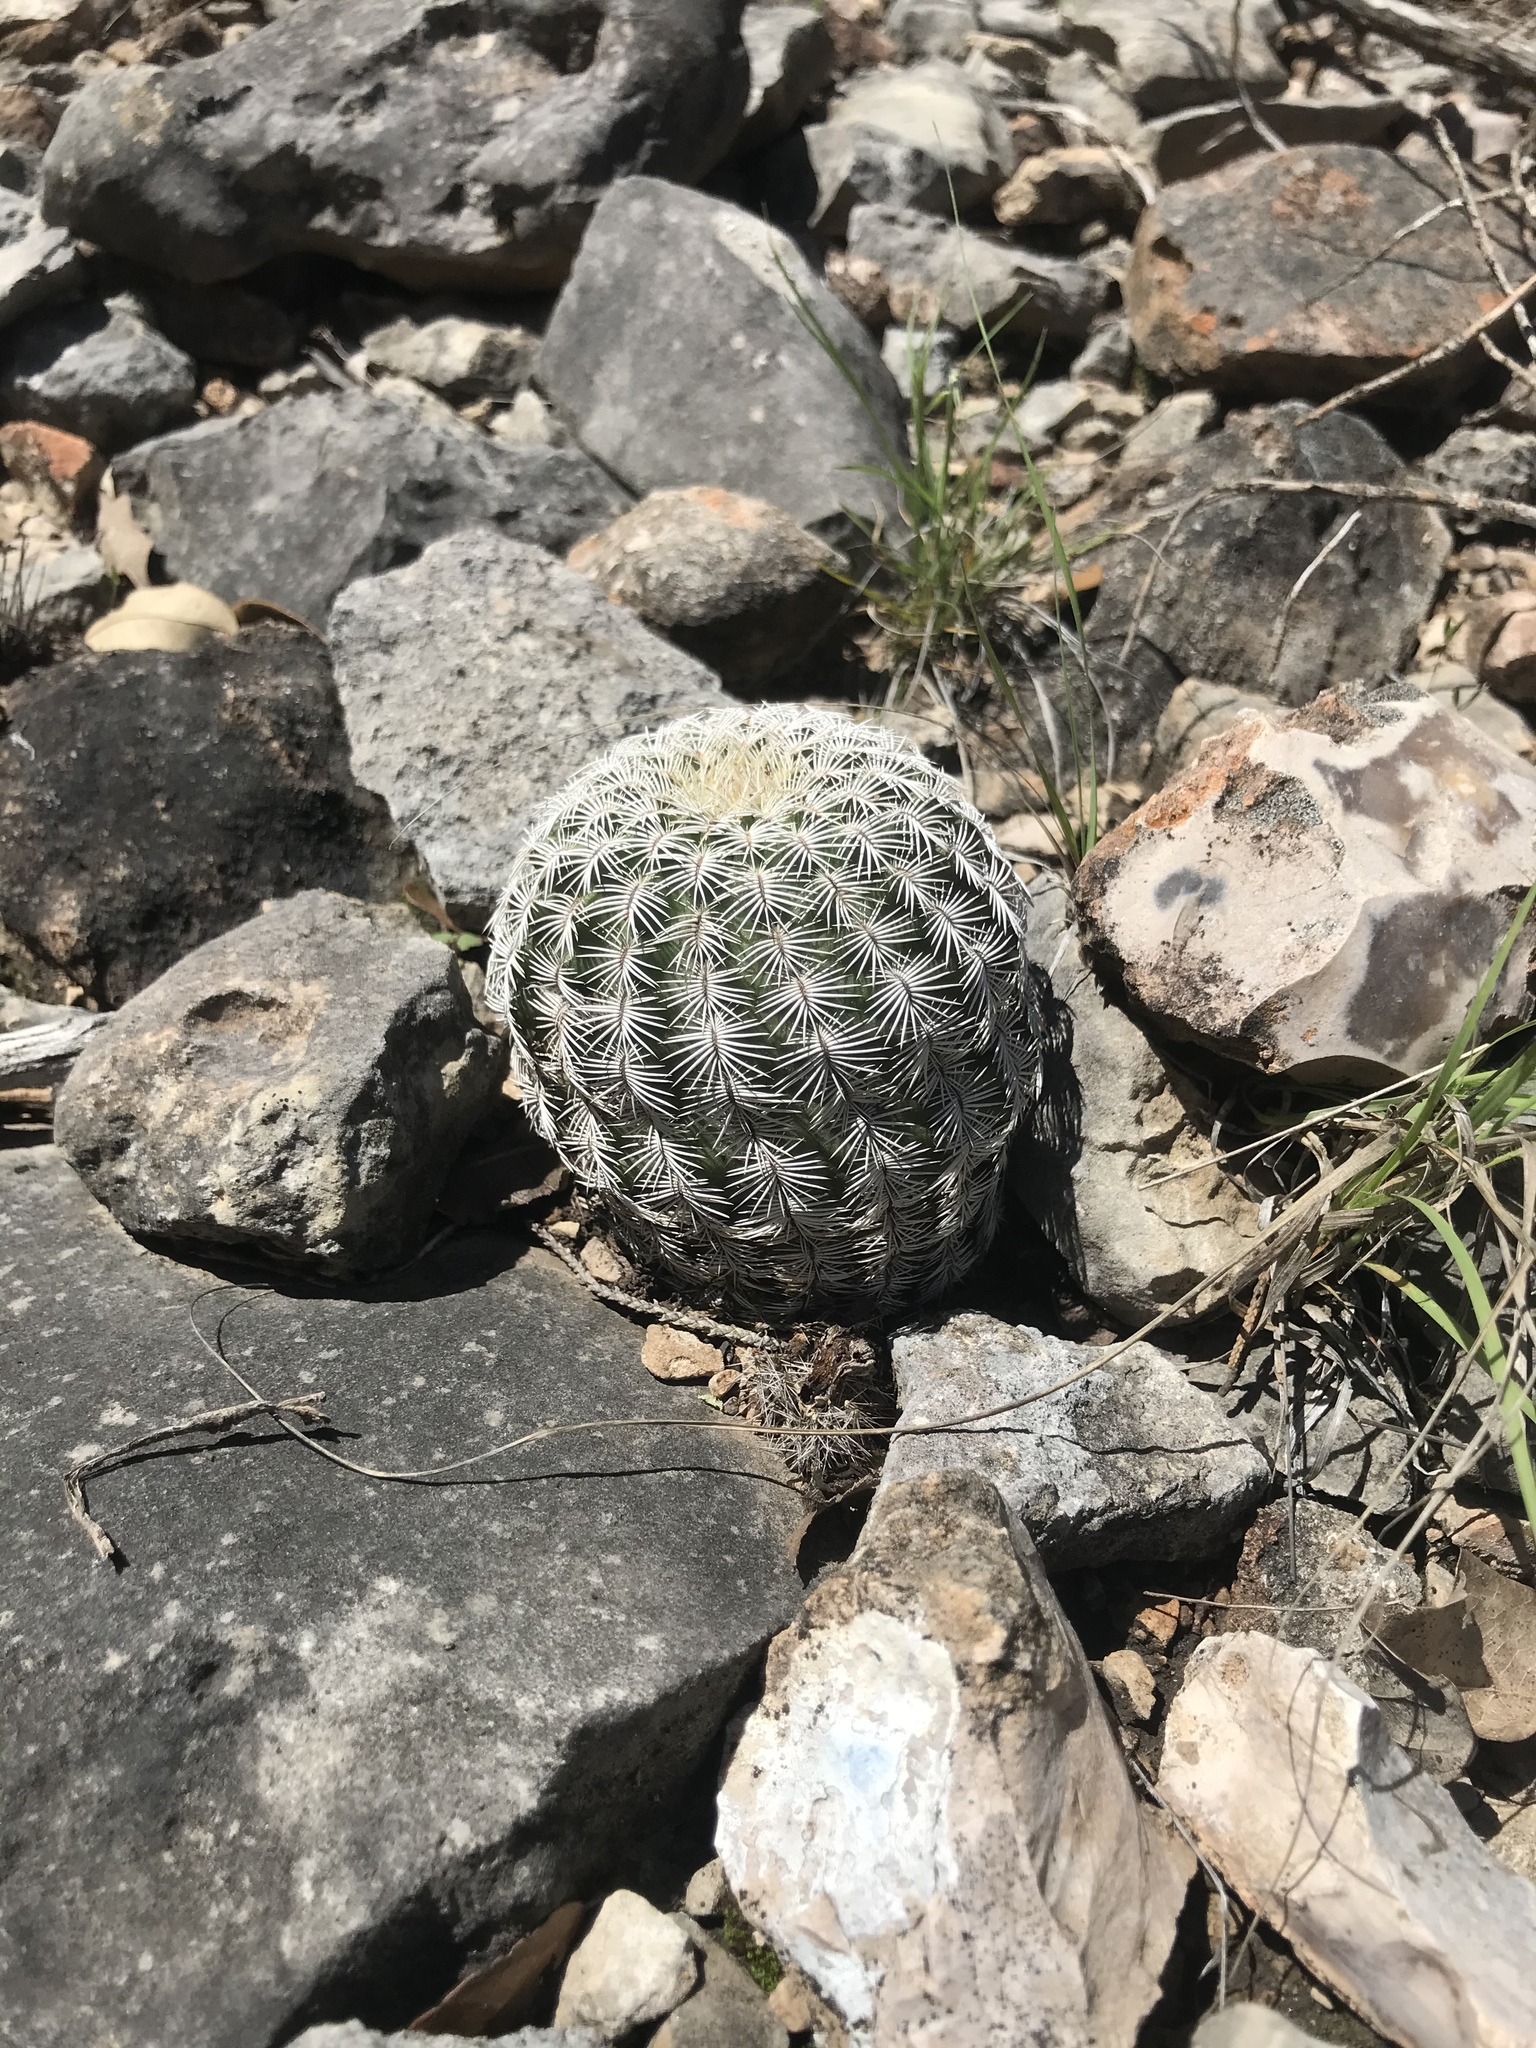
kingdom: Plantae
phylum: Tracheophyta
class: Magnoliopsida
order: Caryophyllales
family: Cactaceae
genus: Echinocereus
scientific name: Echinocereus reichenbachii
